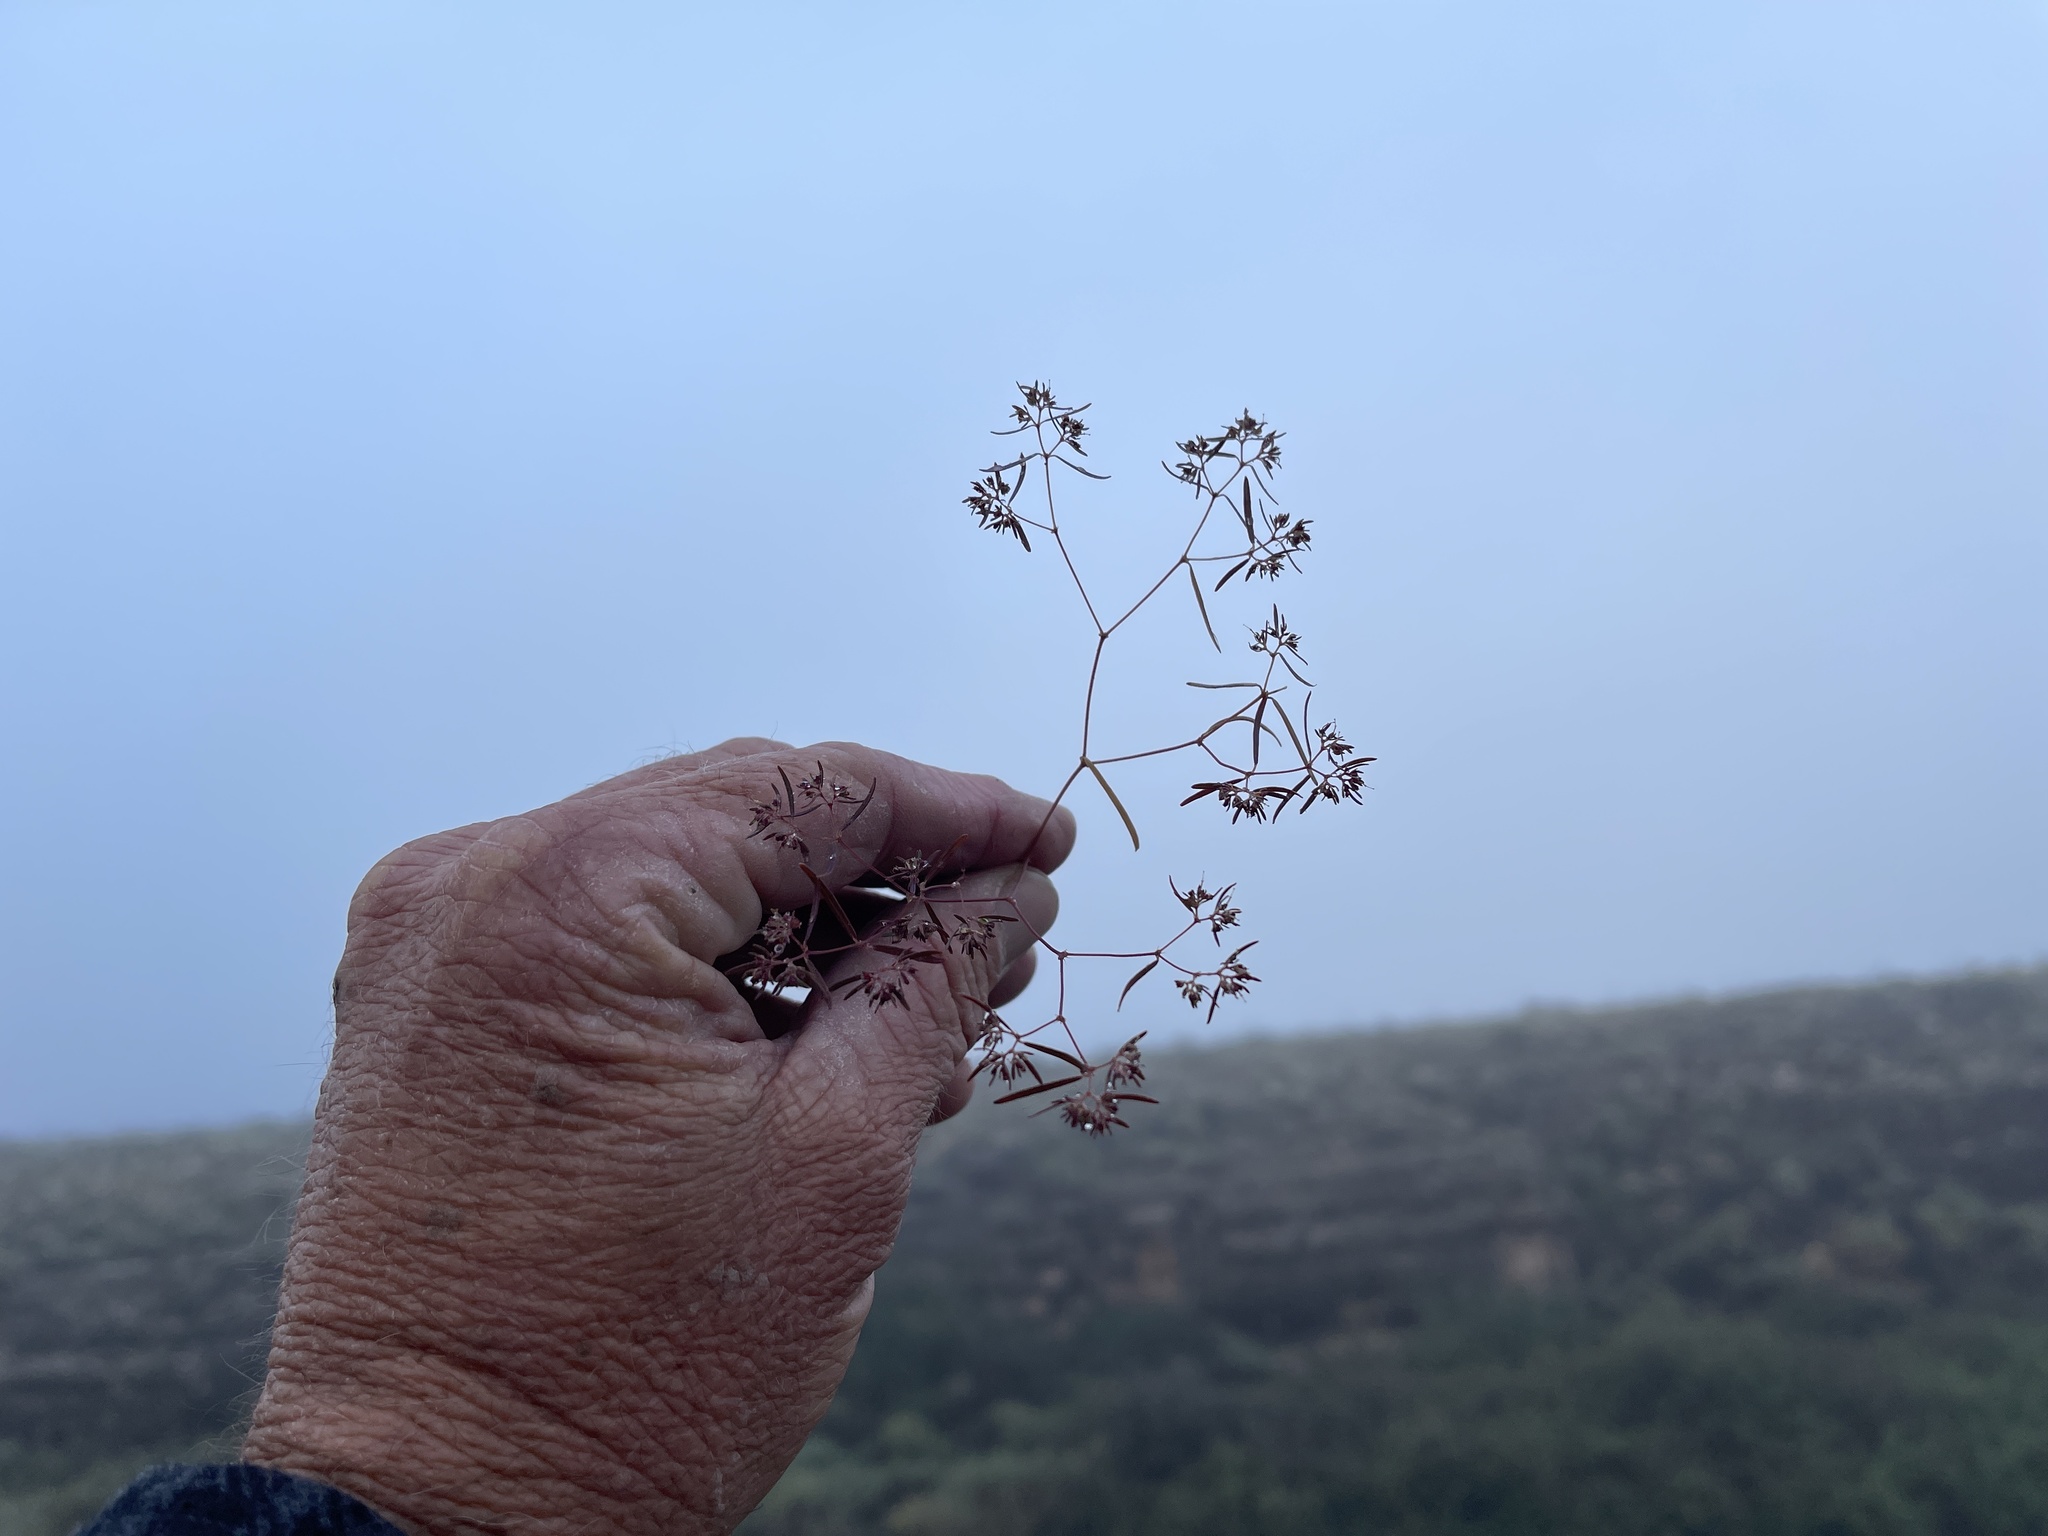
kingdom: Plantae
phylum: Tracheophyta
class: Magnoliopsida
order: Malpighiales
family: Euphorbiaceae
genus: Euphorbia
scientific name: Euphorbia revoluta
